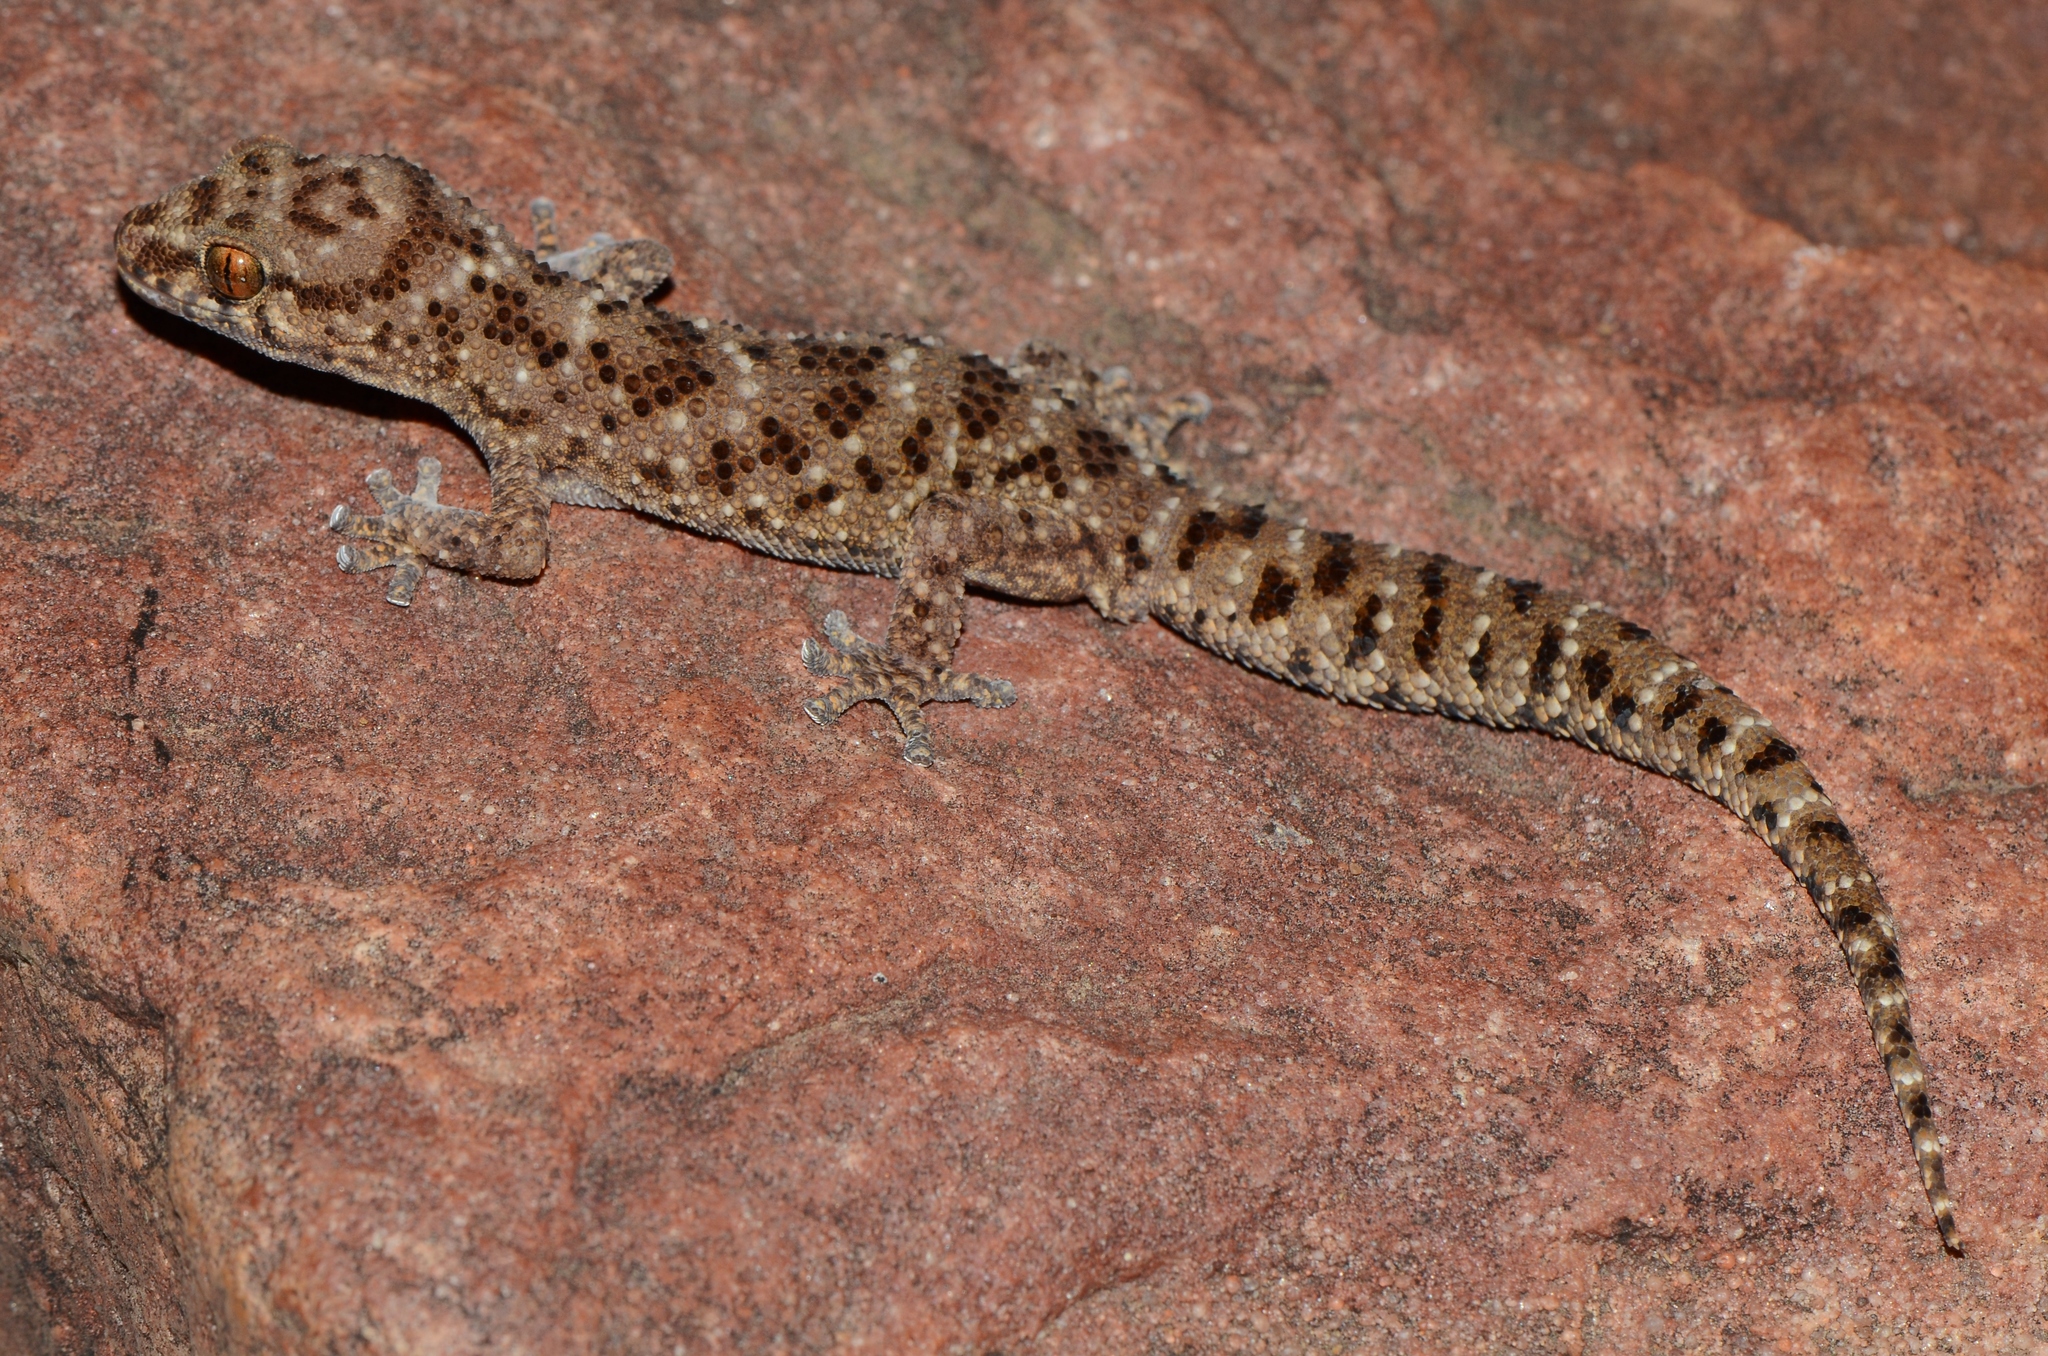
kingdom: Animalia
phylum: Chordata
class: Squamata
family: Gekkonidae
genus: Pachydactylus
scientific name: Pachydactylus capensis
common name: Cape gecko
